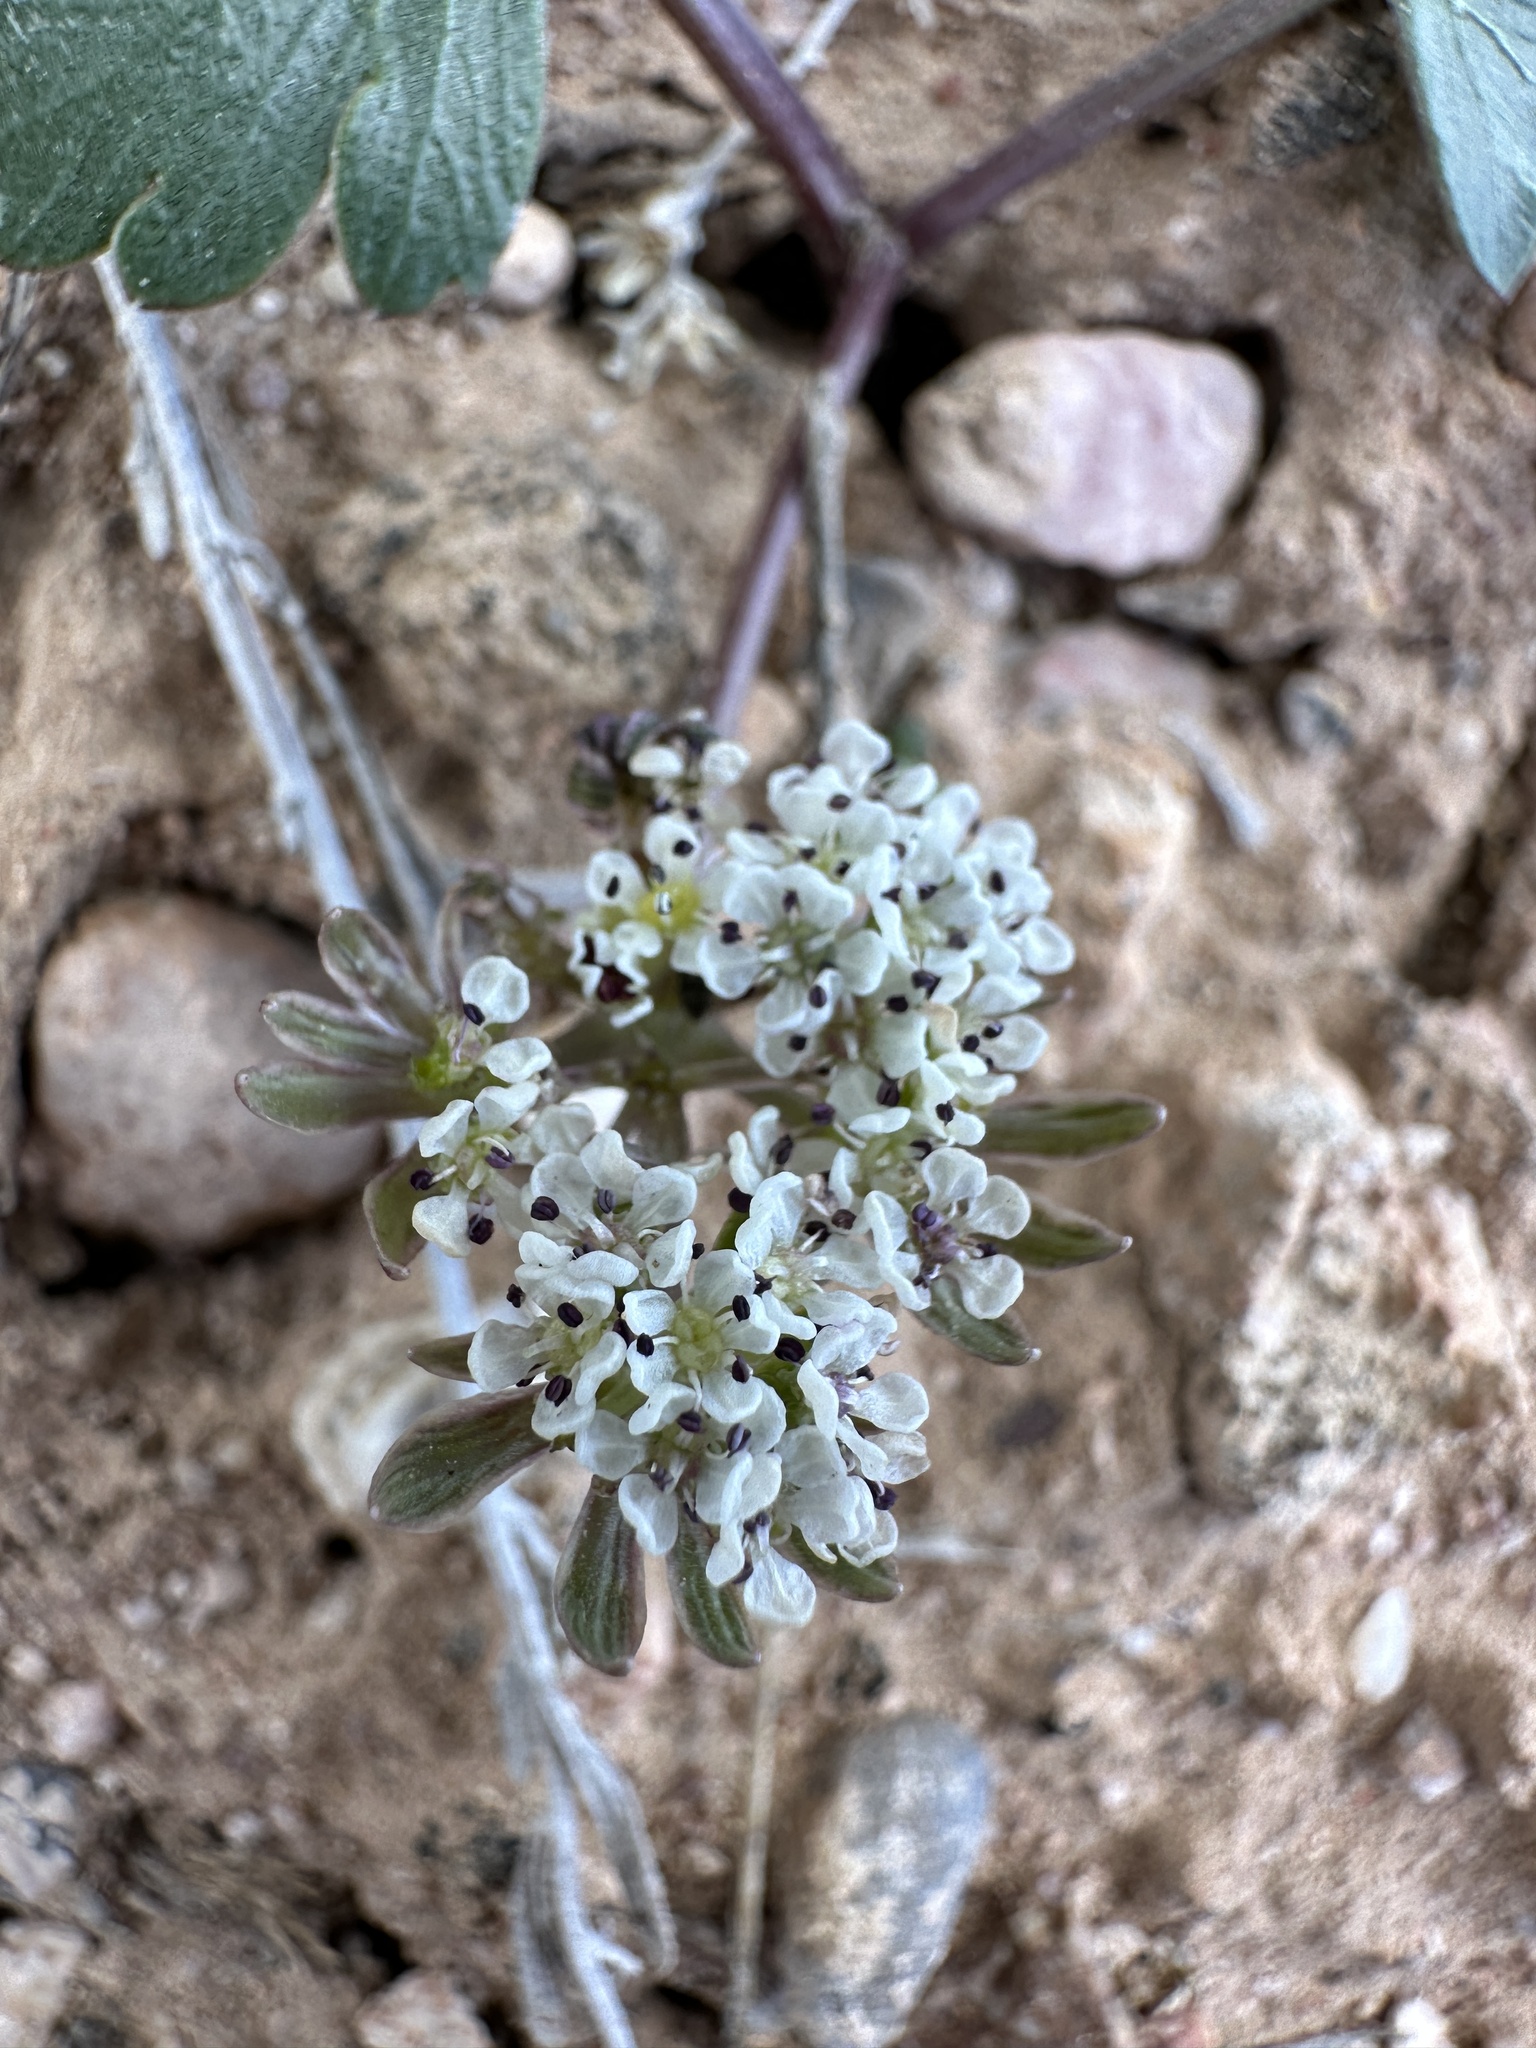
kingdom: Plantae
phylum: Tracheophyta
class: Magnoliopsida
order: Apiales
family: Apiaceae
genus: Cymopterus
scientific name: Cymopterus coulteri
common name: Two-leaf spring-parsley
